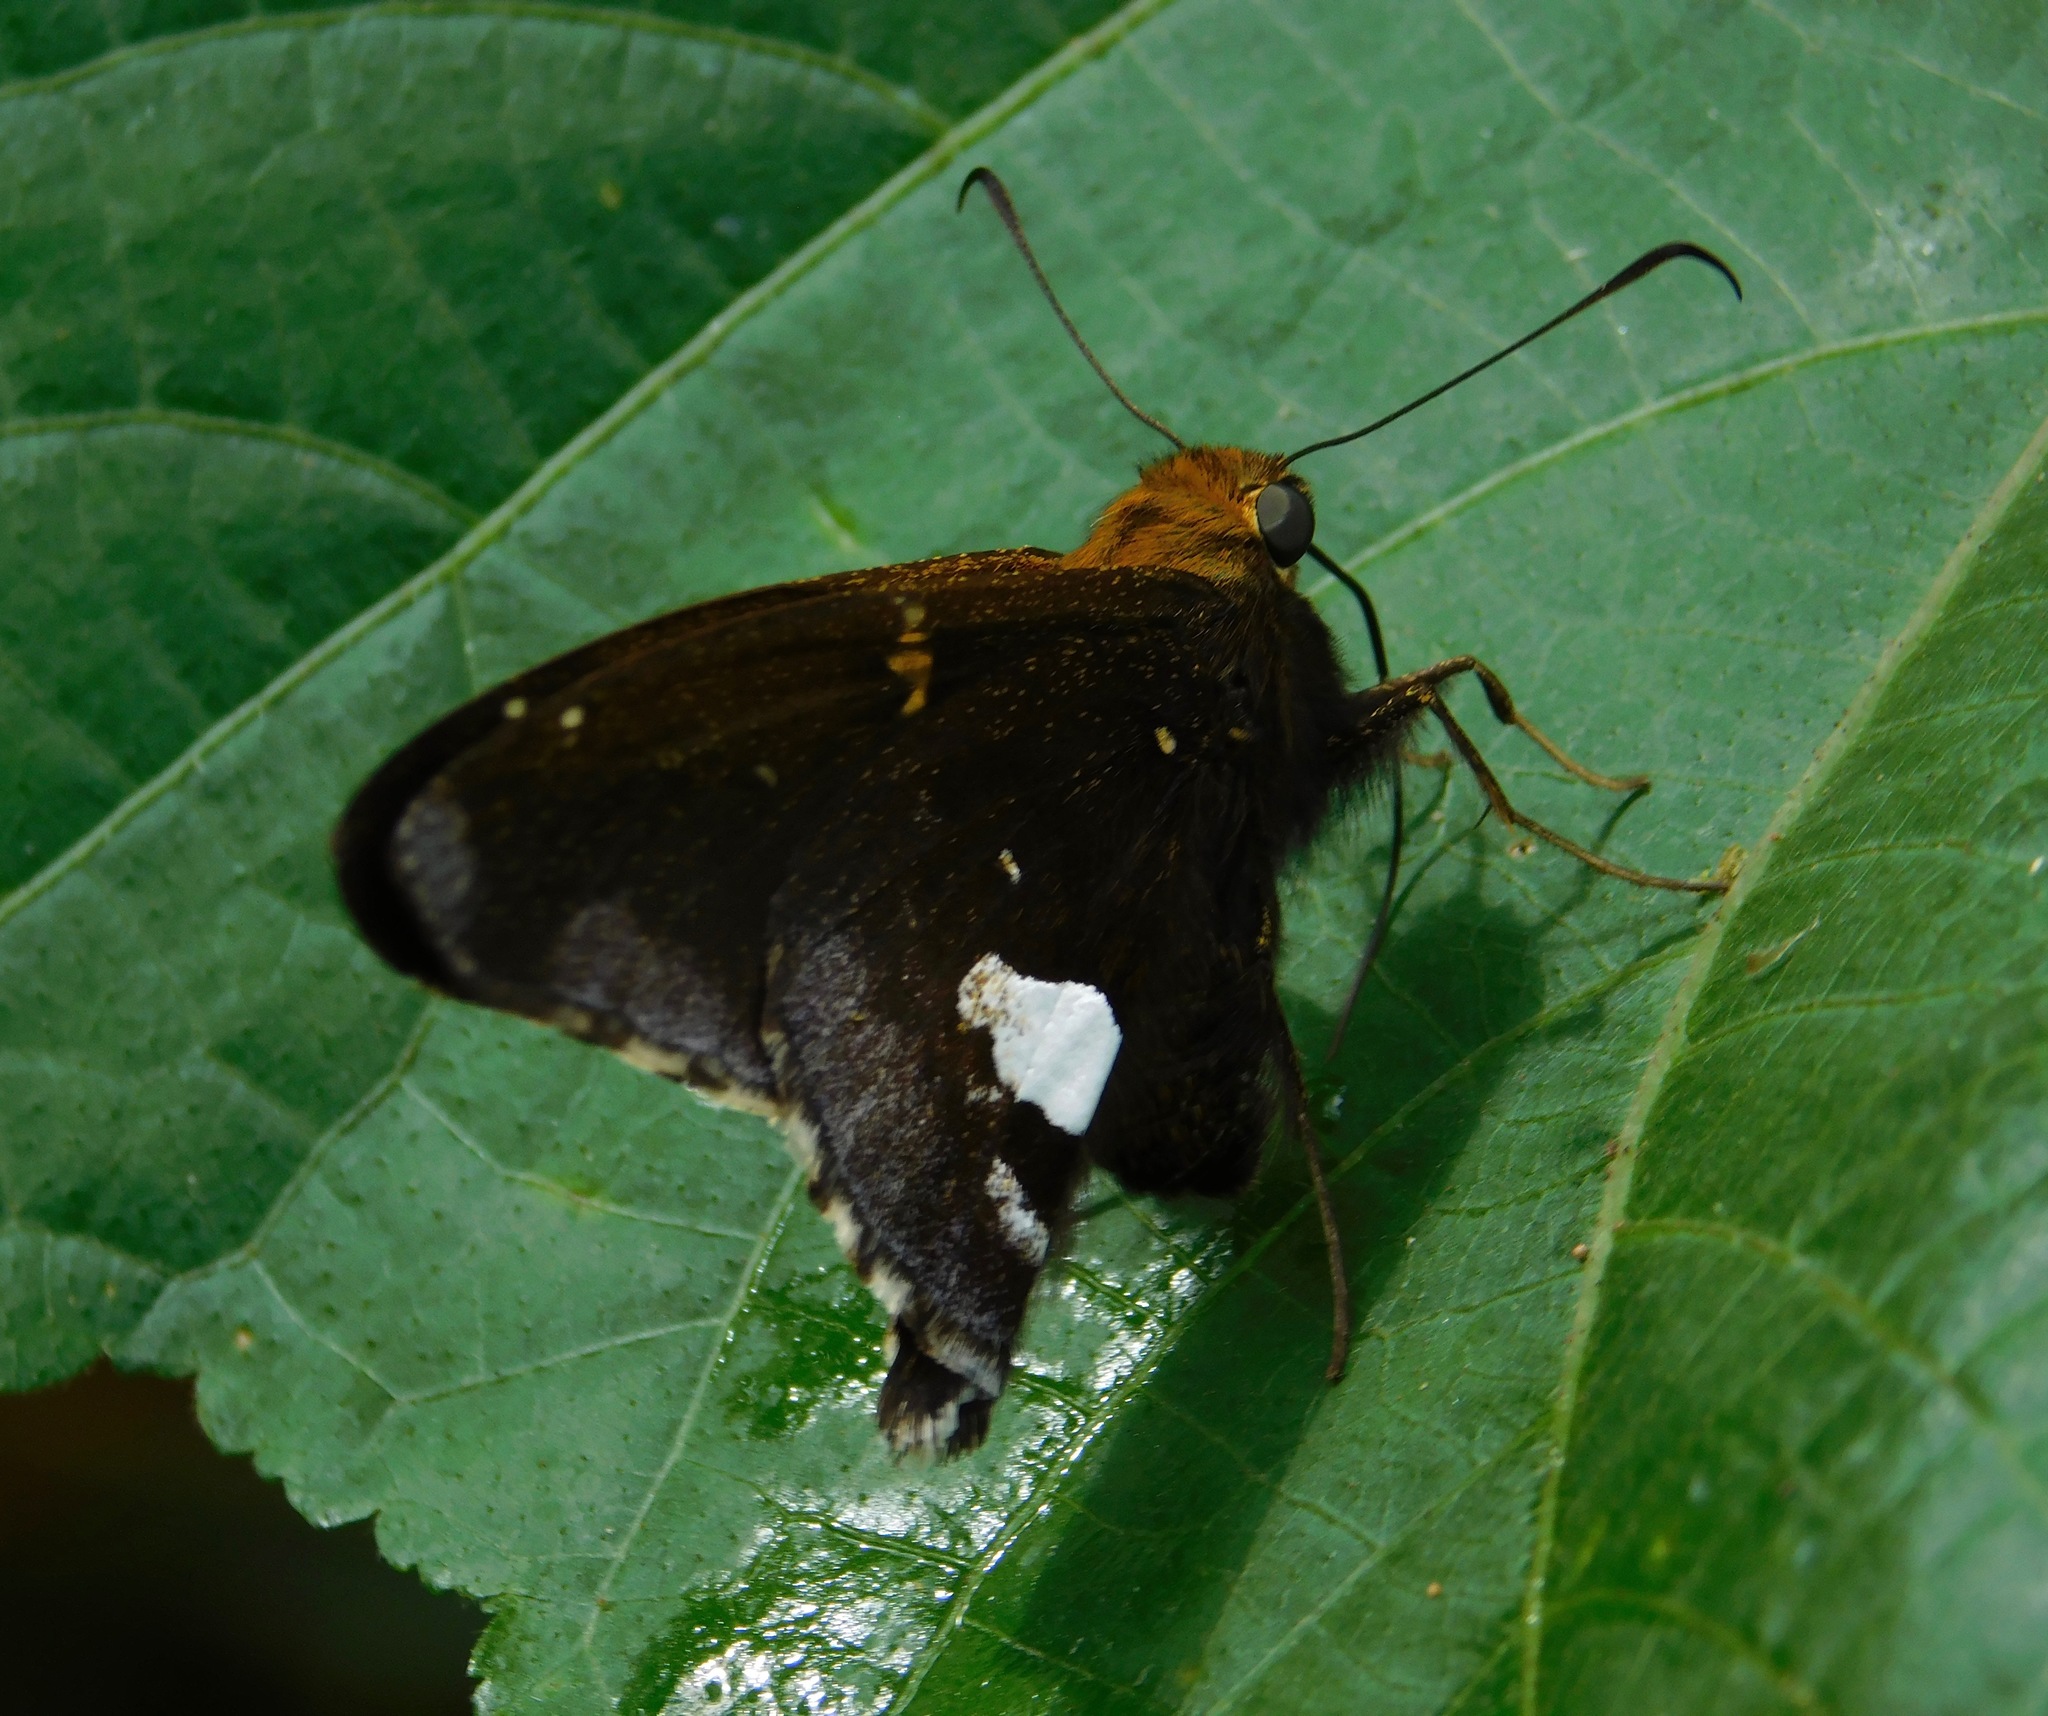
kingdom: Animalia
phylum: Arthropoda
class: Insecta
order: Lepidoptera
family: Hesperiidae
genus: Epargyreus
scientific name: Epargyreus socus
